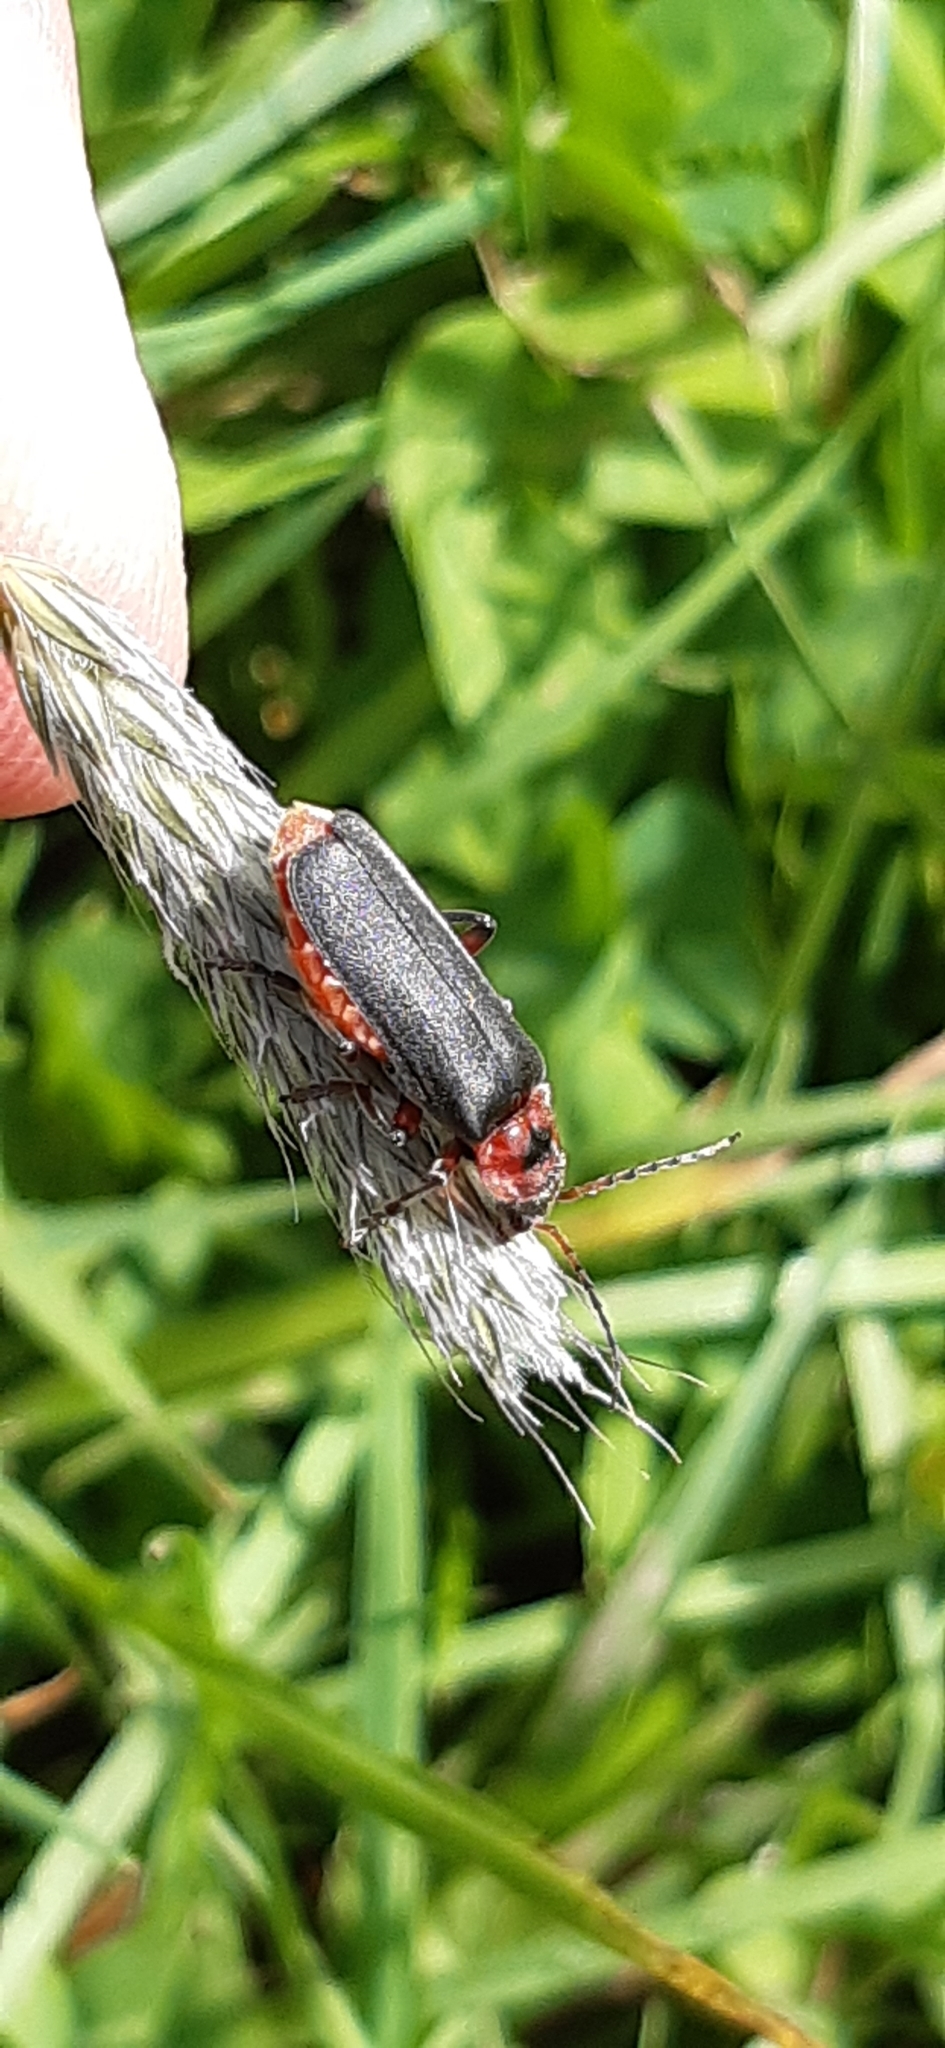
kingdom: Animalia
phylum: Arthropoda
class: Insecta
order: Coleoptera
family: Cantharidae
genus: Cantharis
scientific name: Cantharis rustica
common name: Soldier beetle
